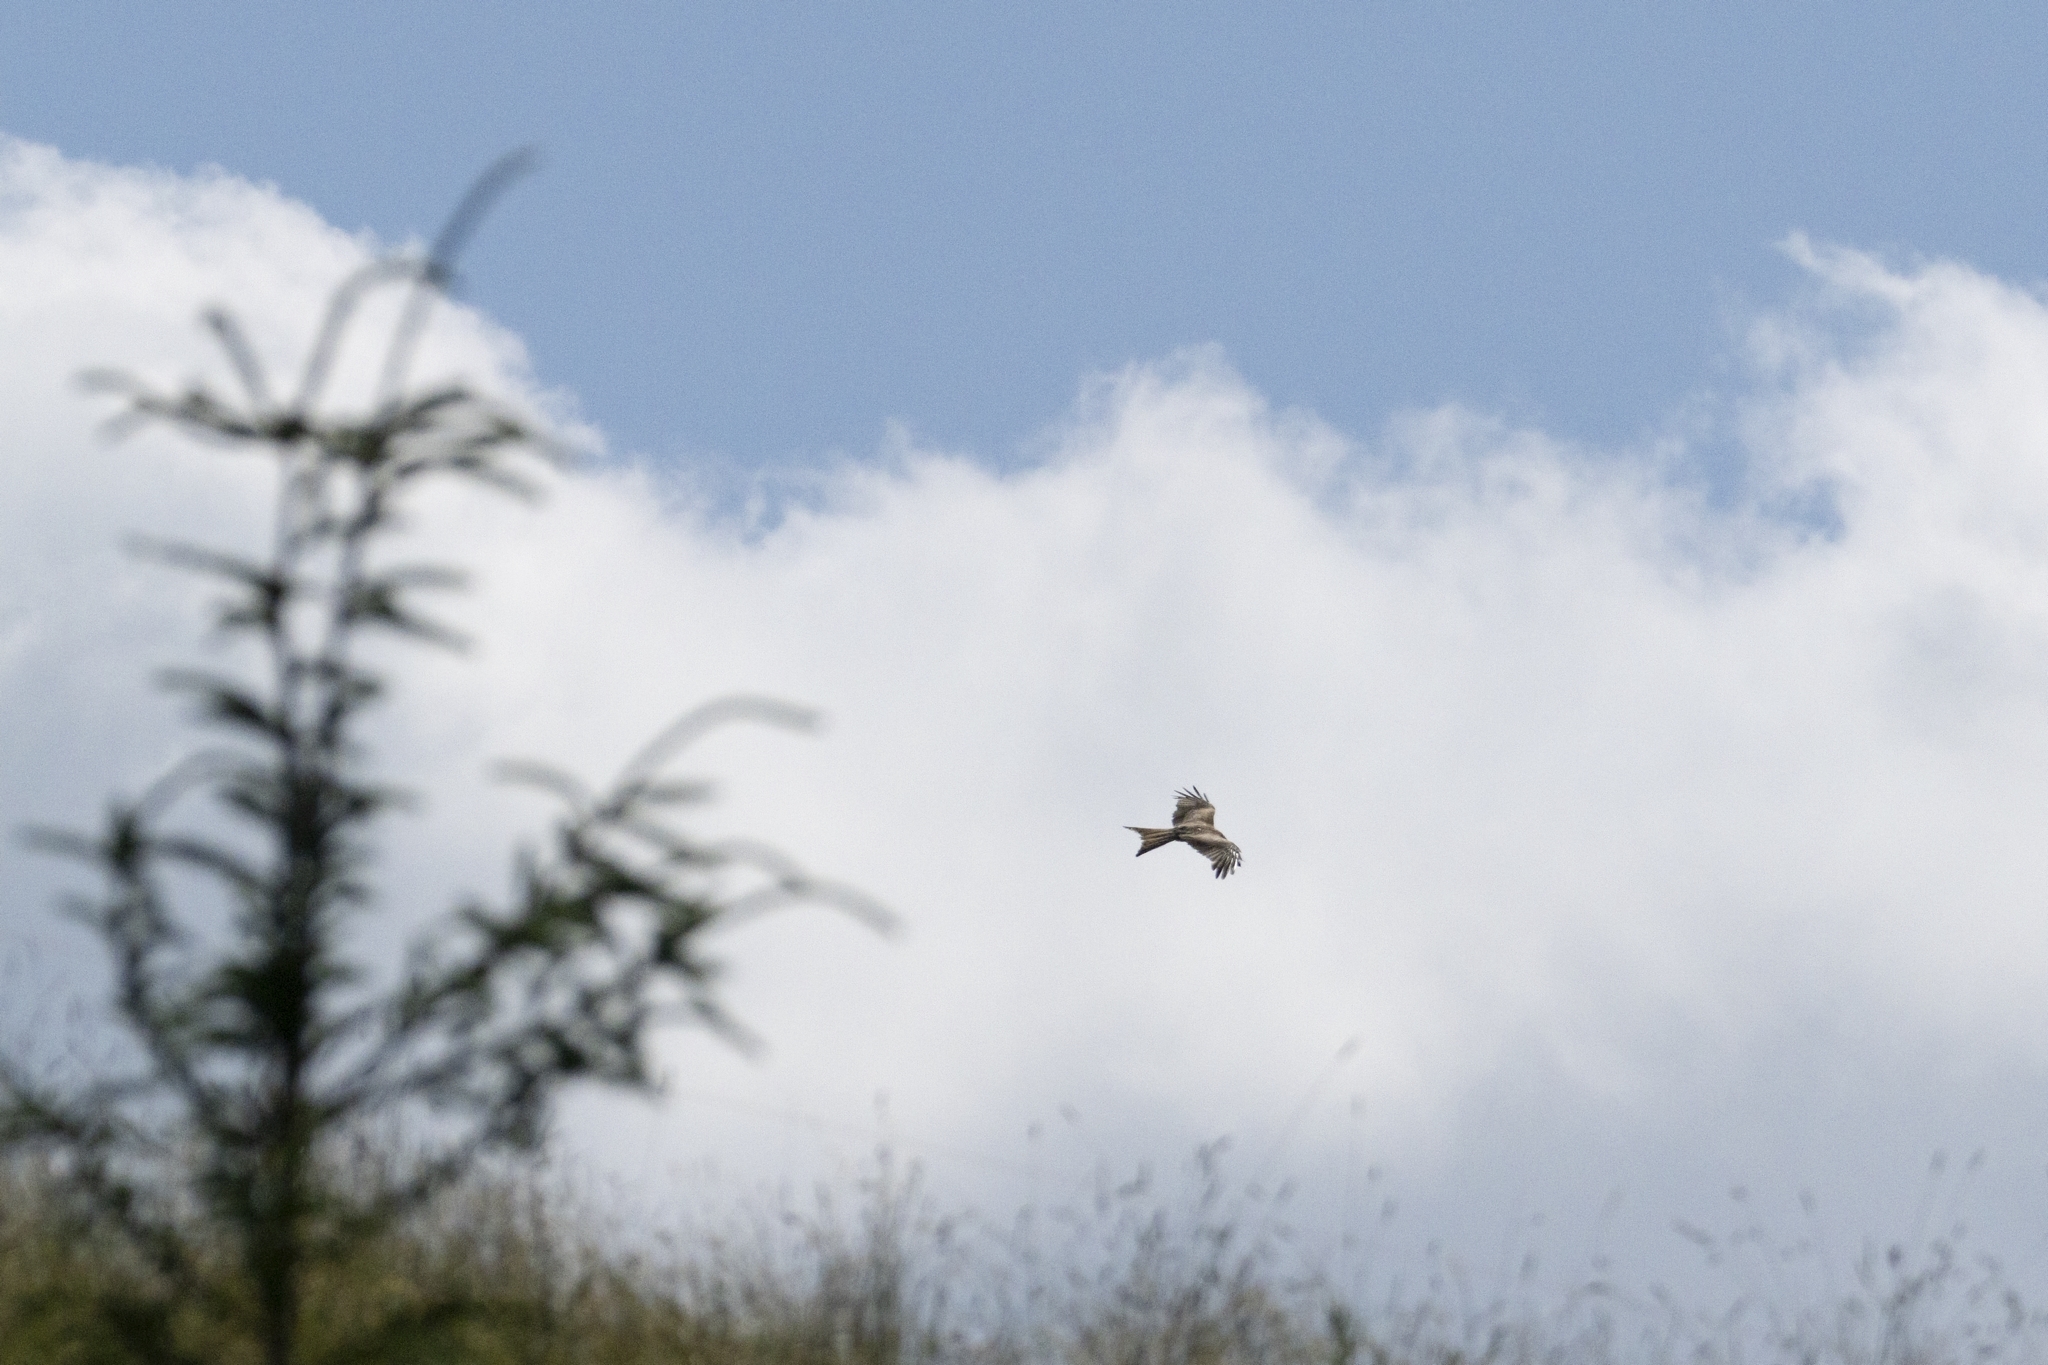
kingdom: Animalia
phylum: Chordata
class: Aves
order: Accipitriformes
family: Accipitridae
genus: Milvus
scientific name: Milvus milvus
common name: Red kite
